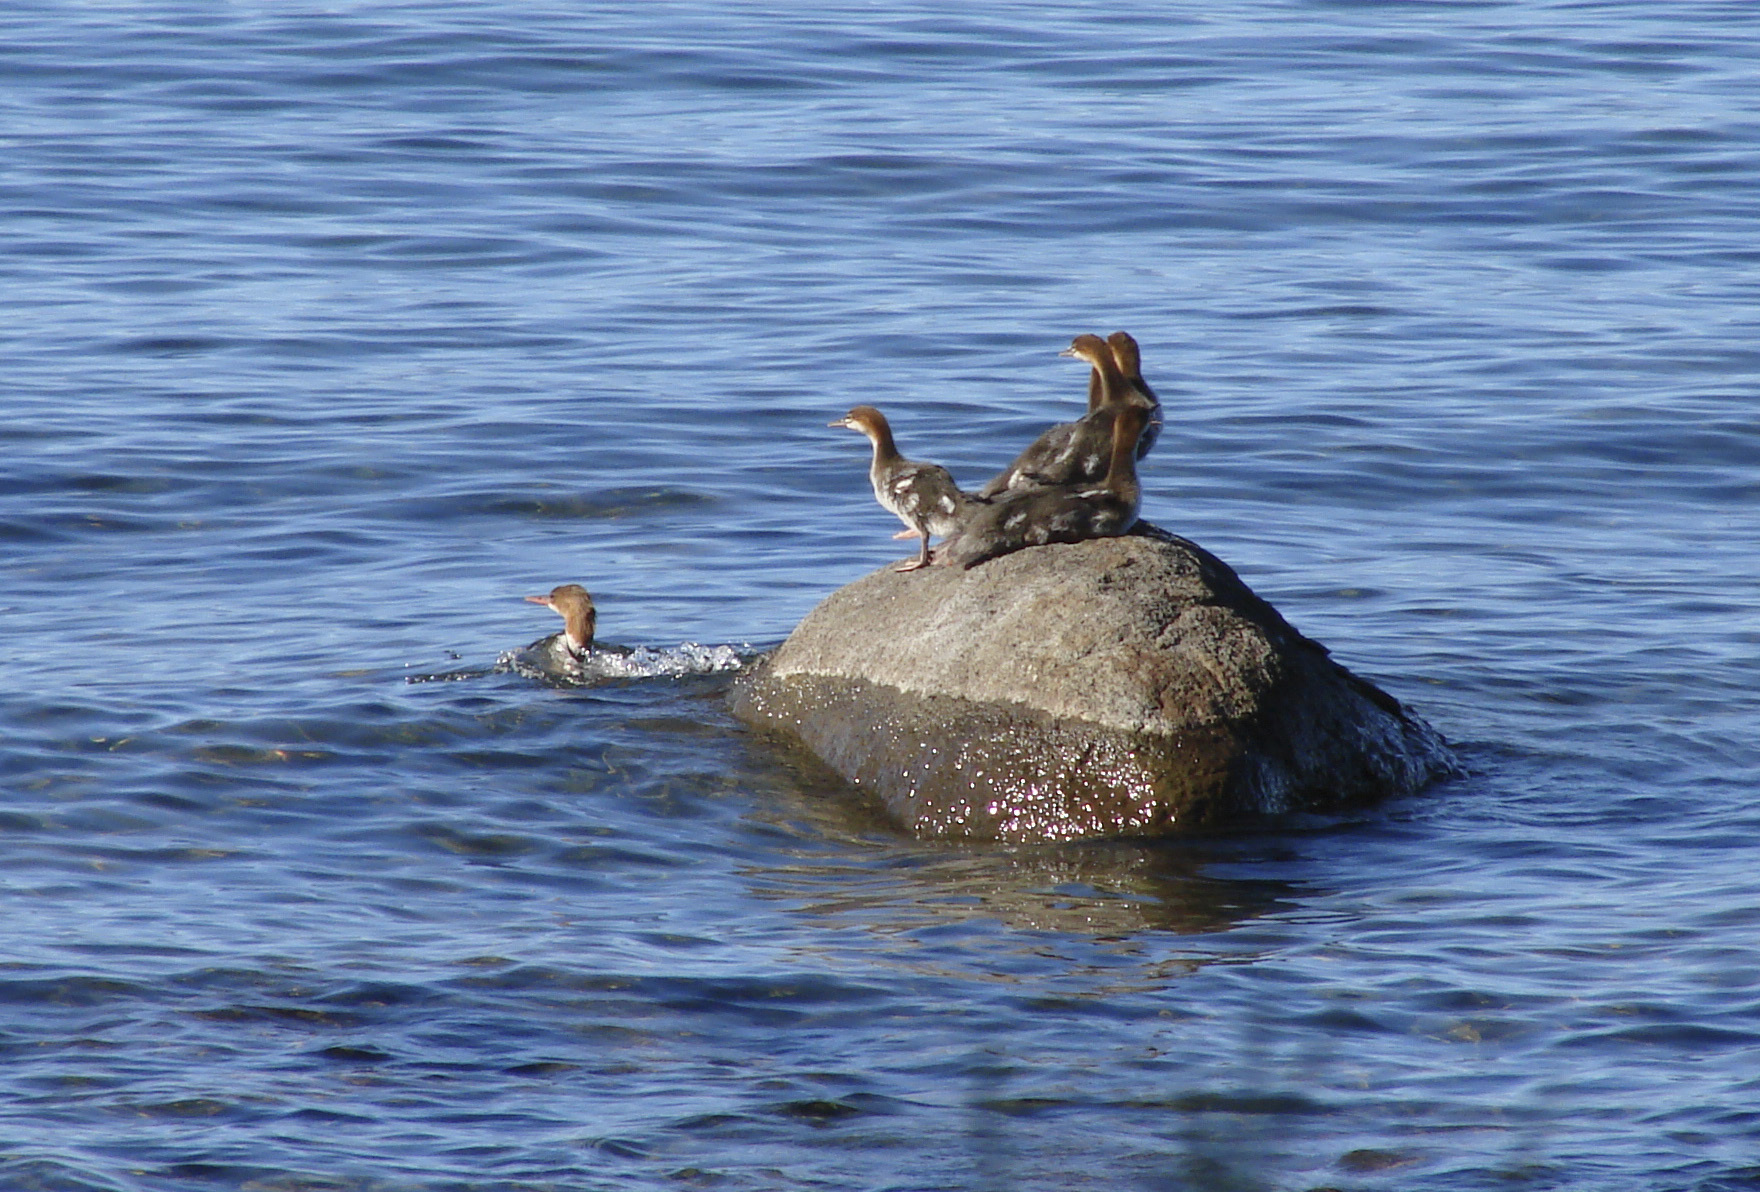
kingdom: Animalia
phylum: Chordata
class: Aves
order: Anseriformes
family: Anatidae
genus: Mergus
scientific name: Mergus merganser
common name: Common merganser
